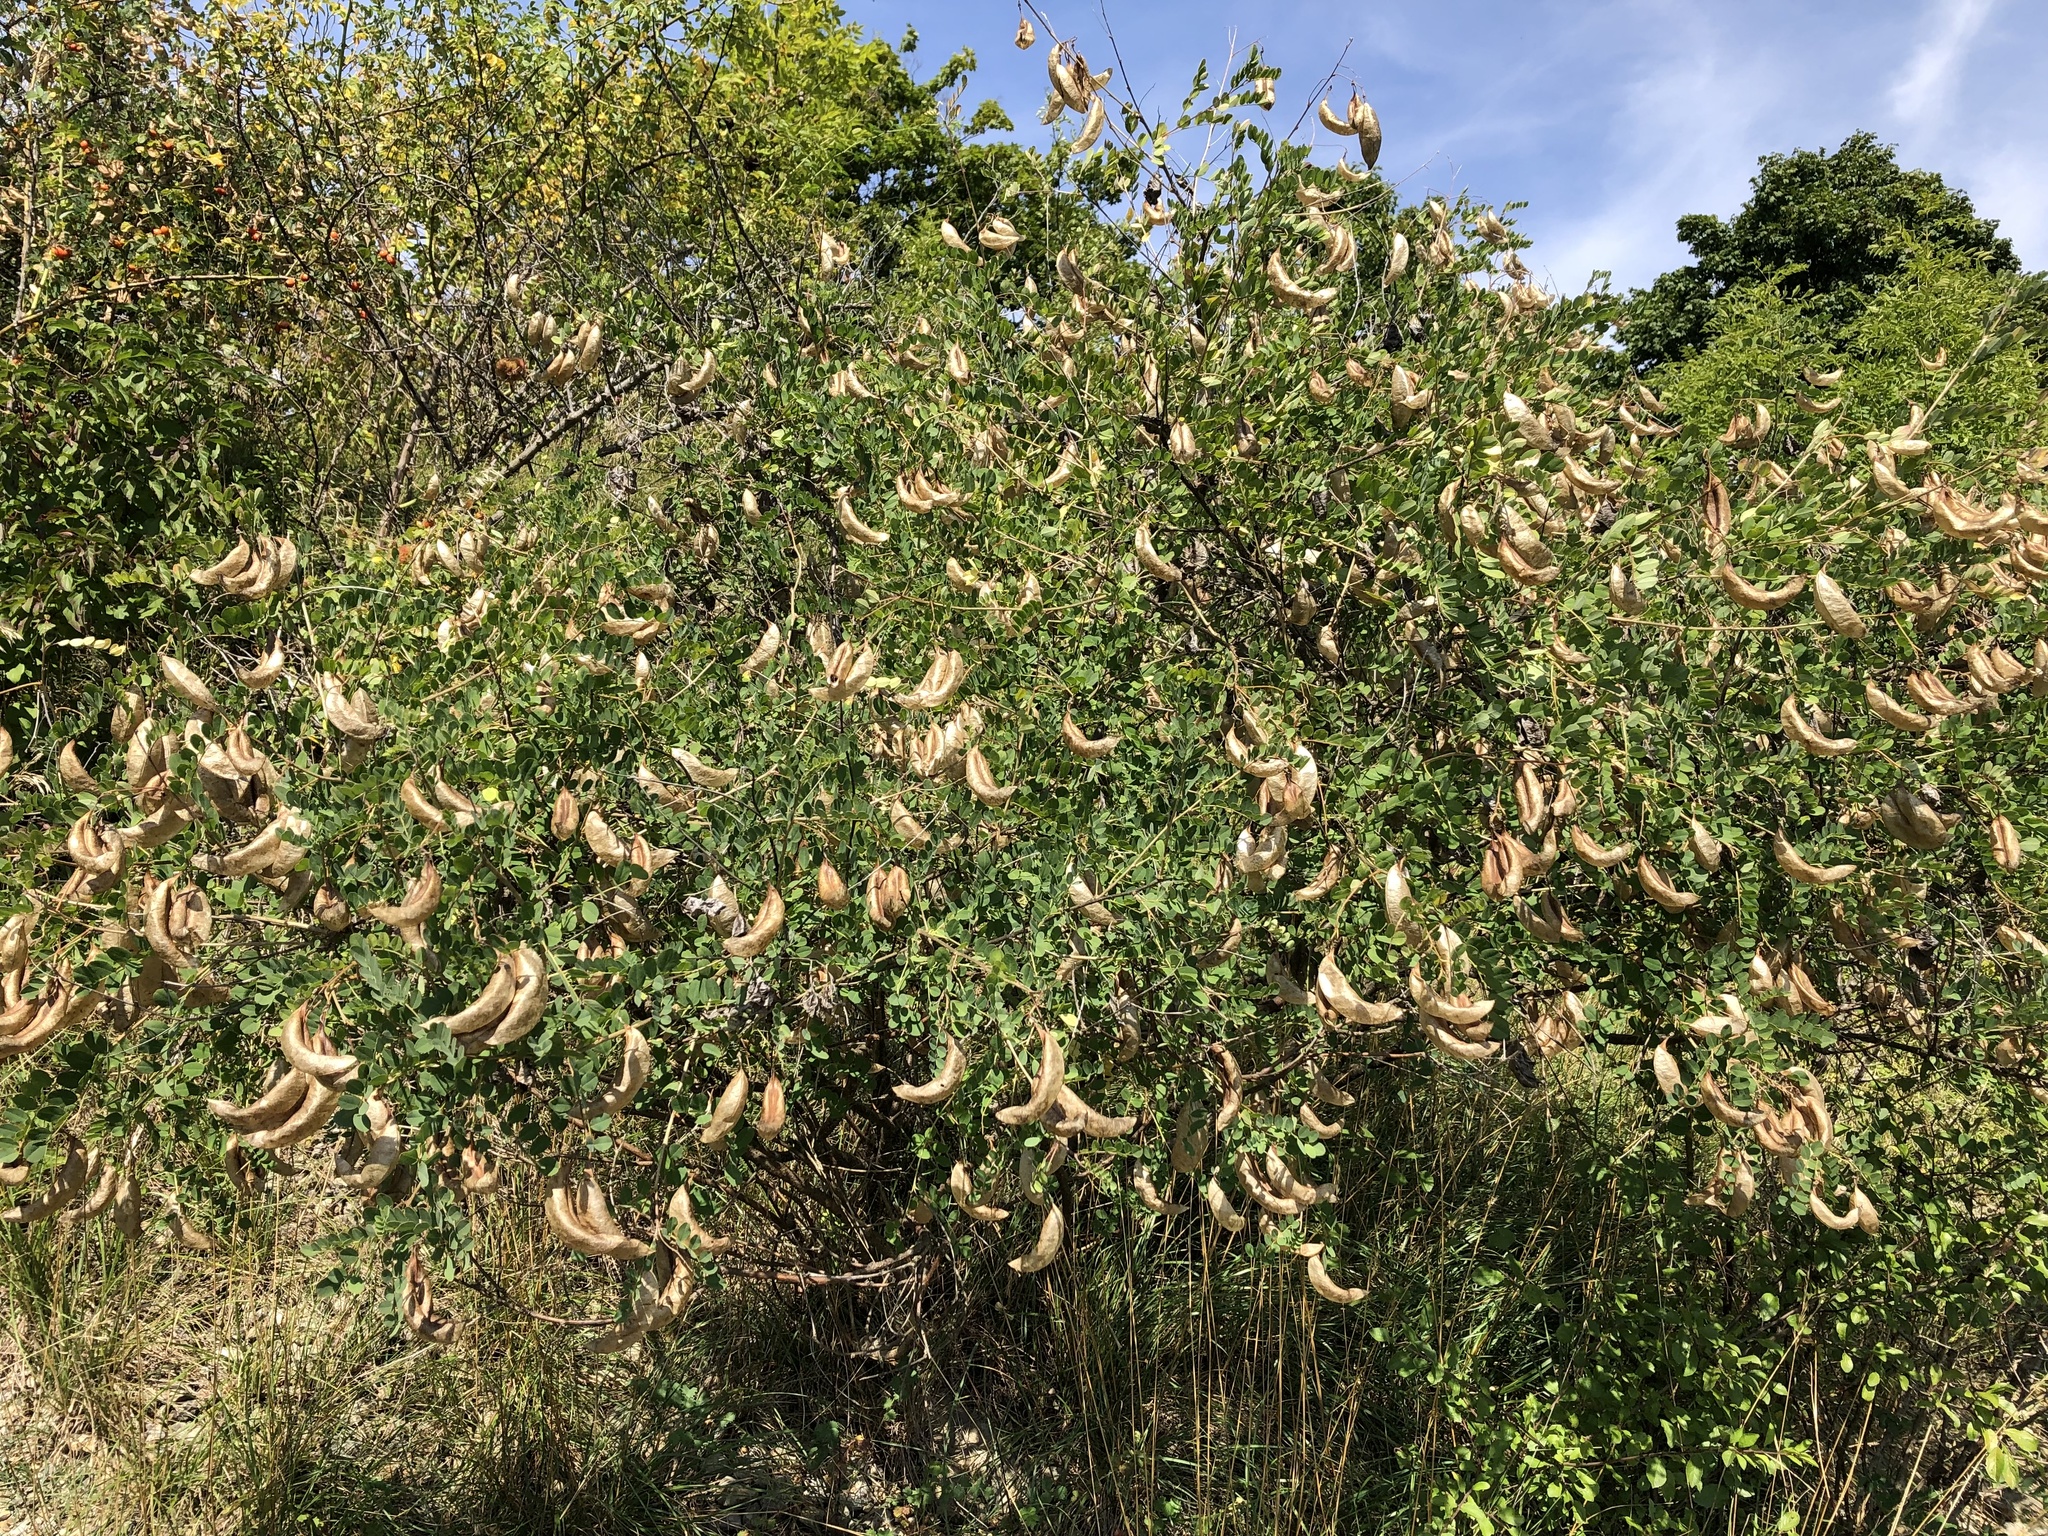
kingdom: Plantae
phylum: Tracheophyta
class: Magnoliopsida
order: Fabales
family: Fabaceae
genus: Colutea
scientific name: Colutea arborescens
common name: Bladder-senna
